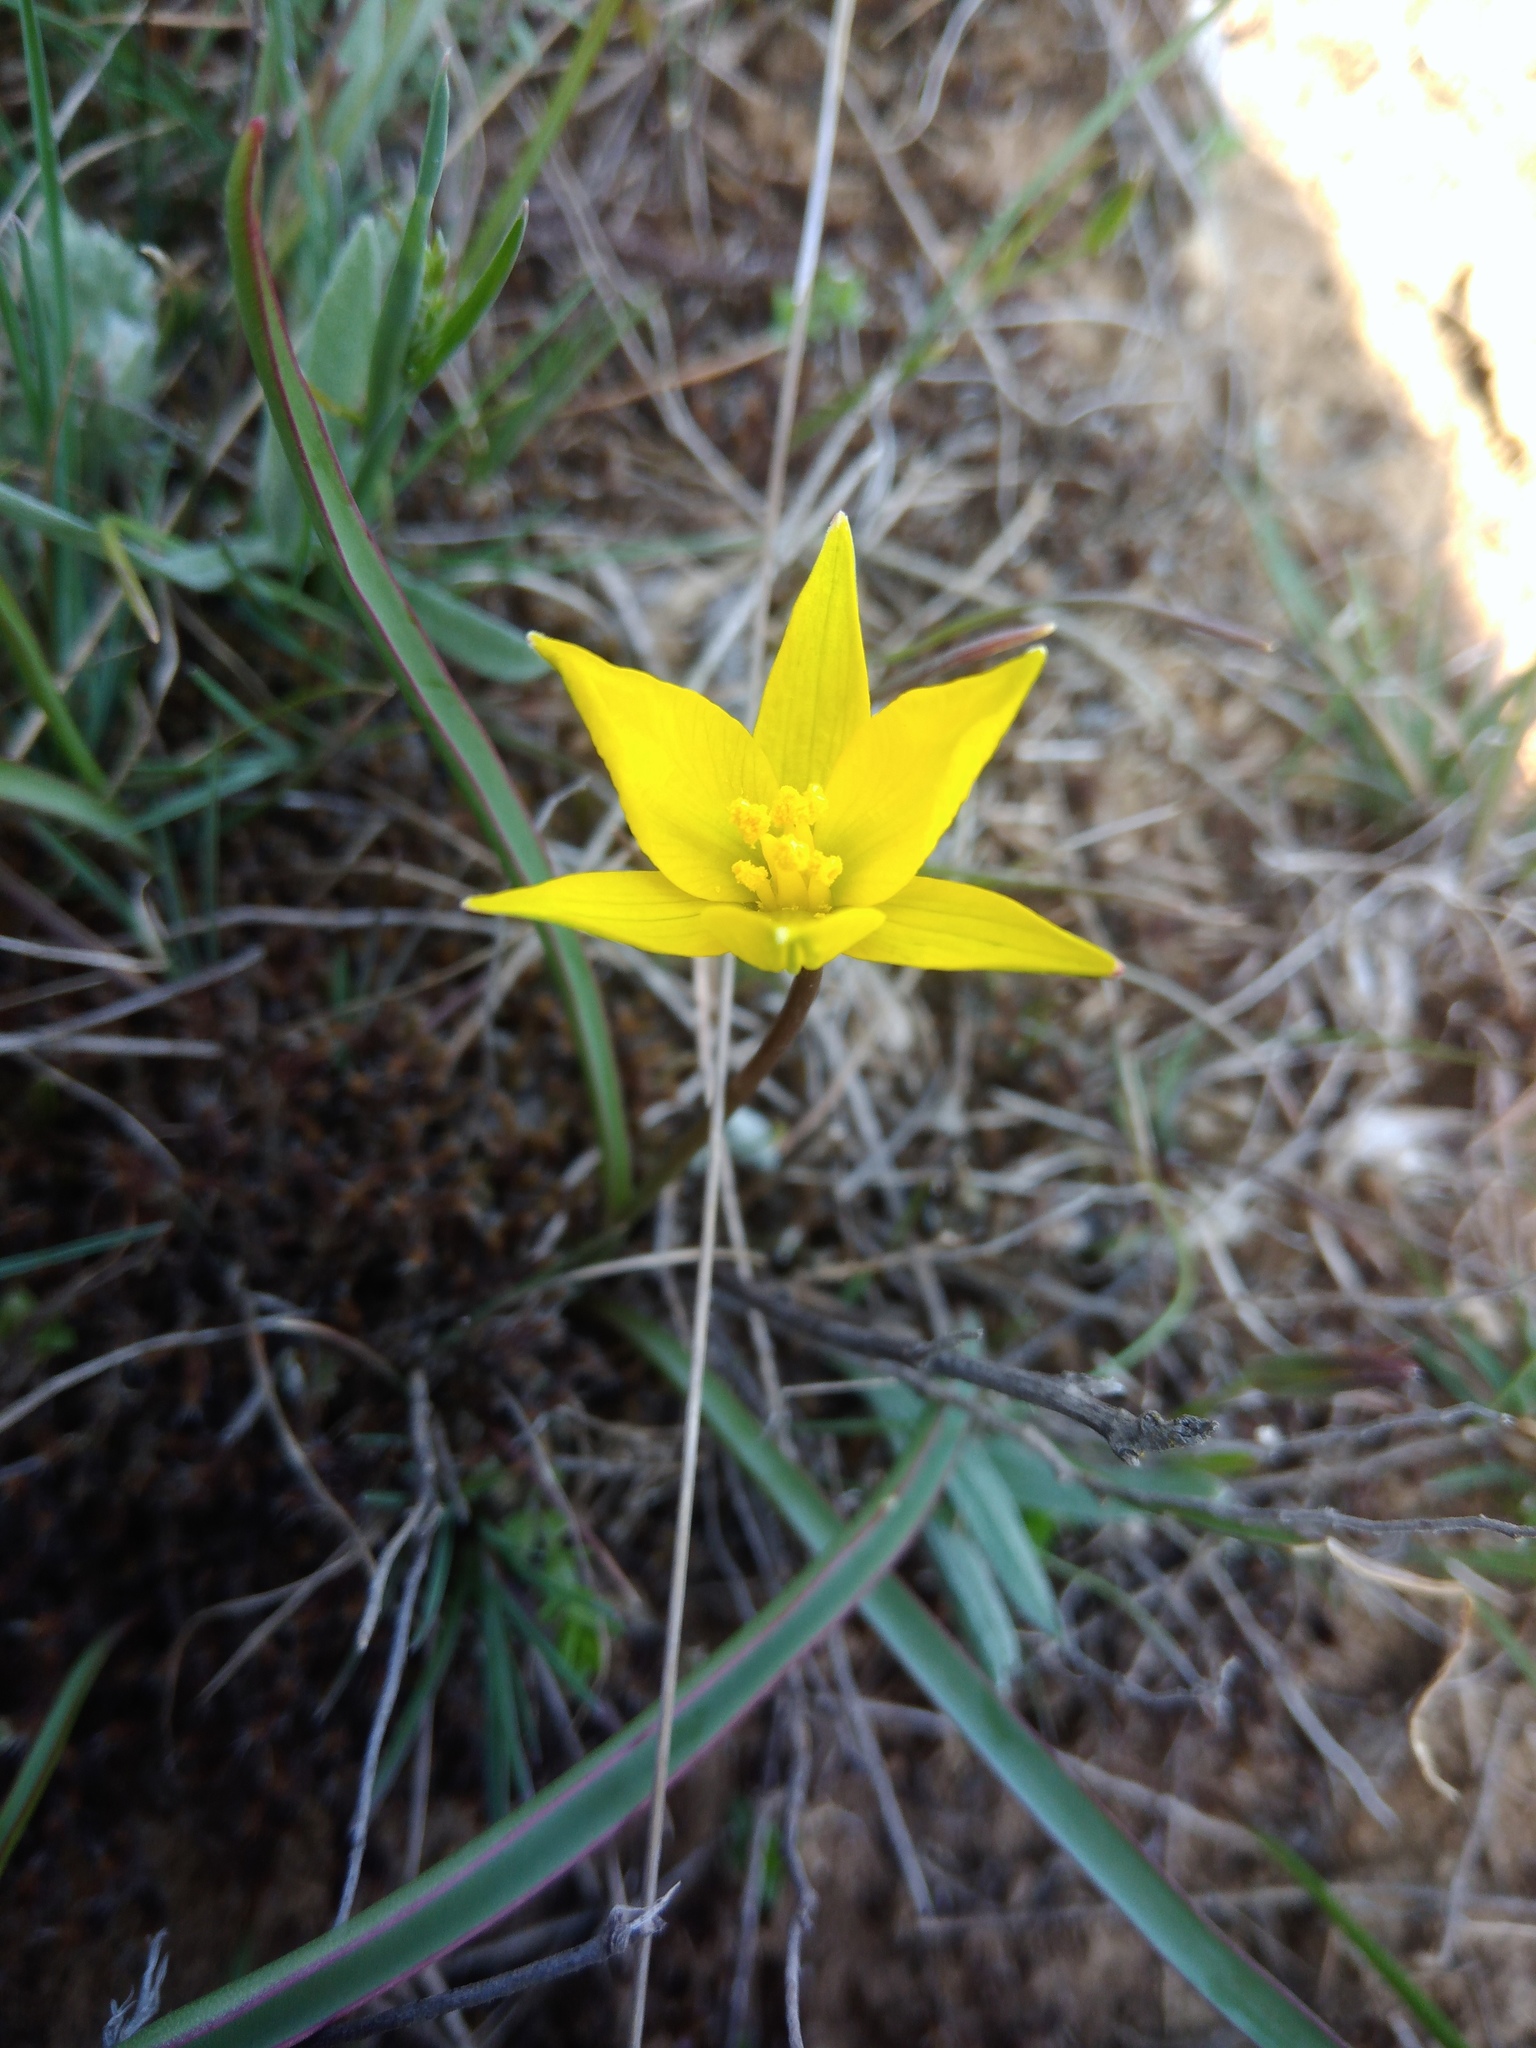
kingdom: Plantae
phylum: Tracheophyta
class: Liliopsida
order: Liliales
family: Liliaceae
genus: Tulipa
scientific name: Tulipa sylvestris
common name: Wild tulip
